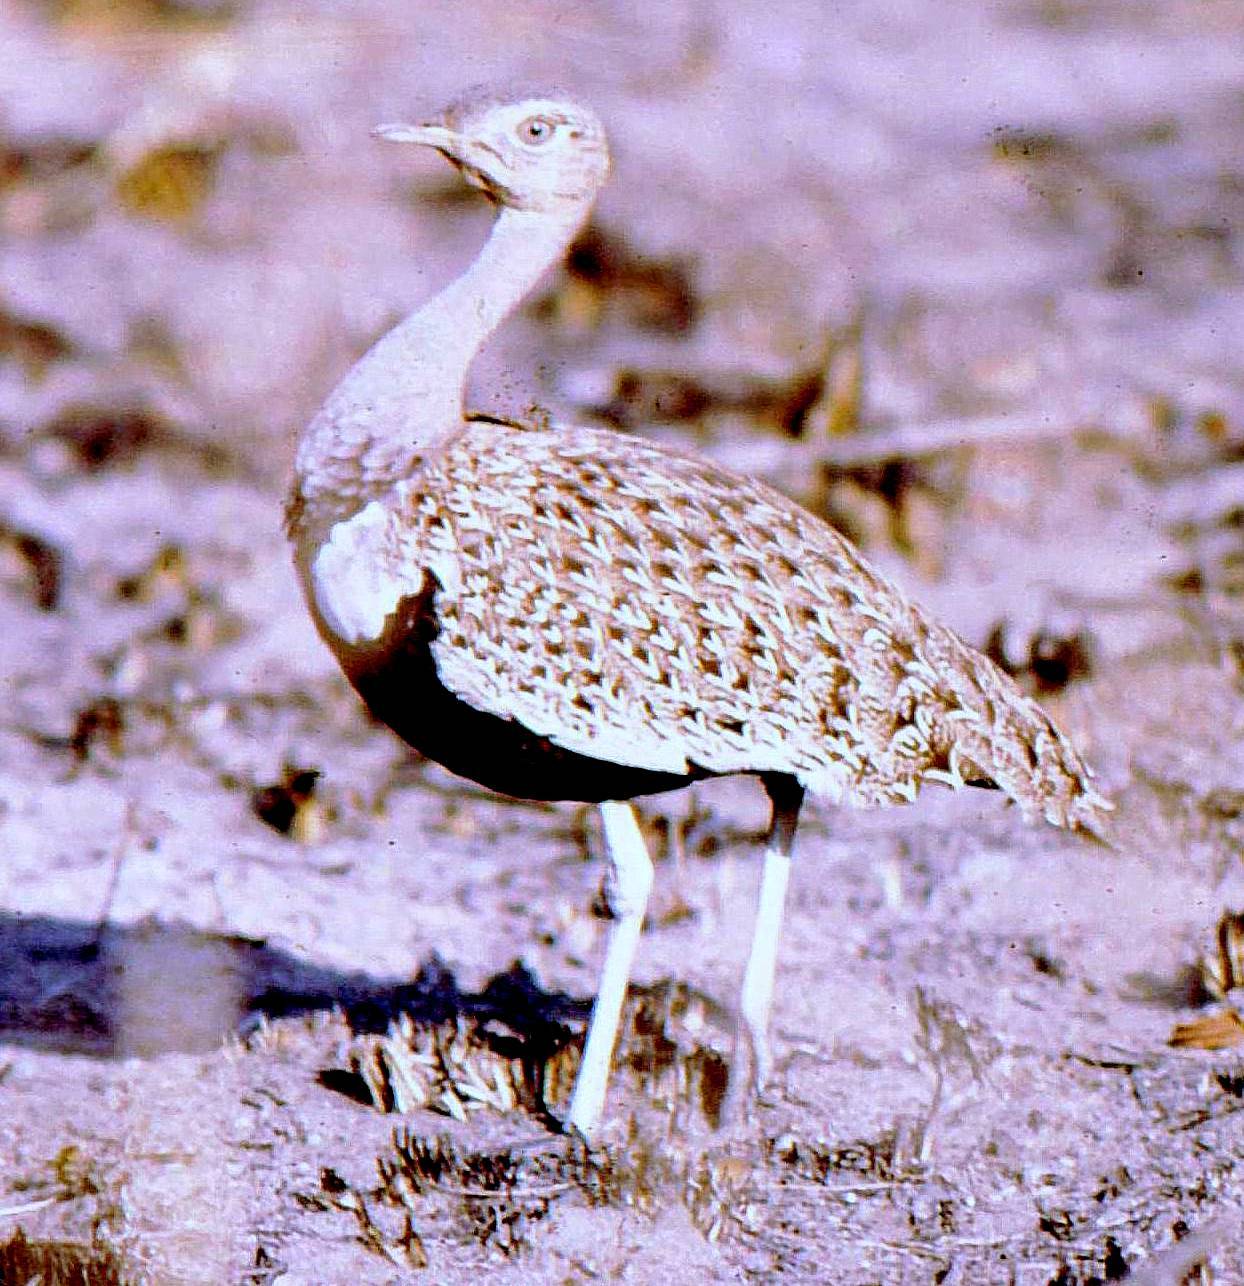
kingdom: Animalia
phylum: Chordata
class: Aves
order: Otidiformes
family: Otididae
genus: Lophotis
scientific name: Lophotis ruficrista
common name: Red-crested korhaan
